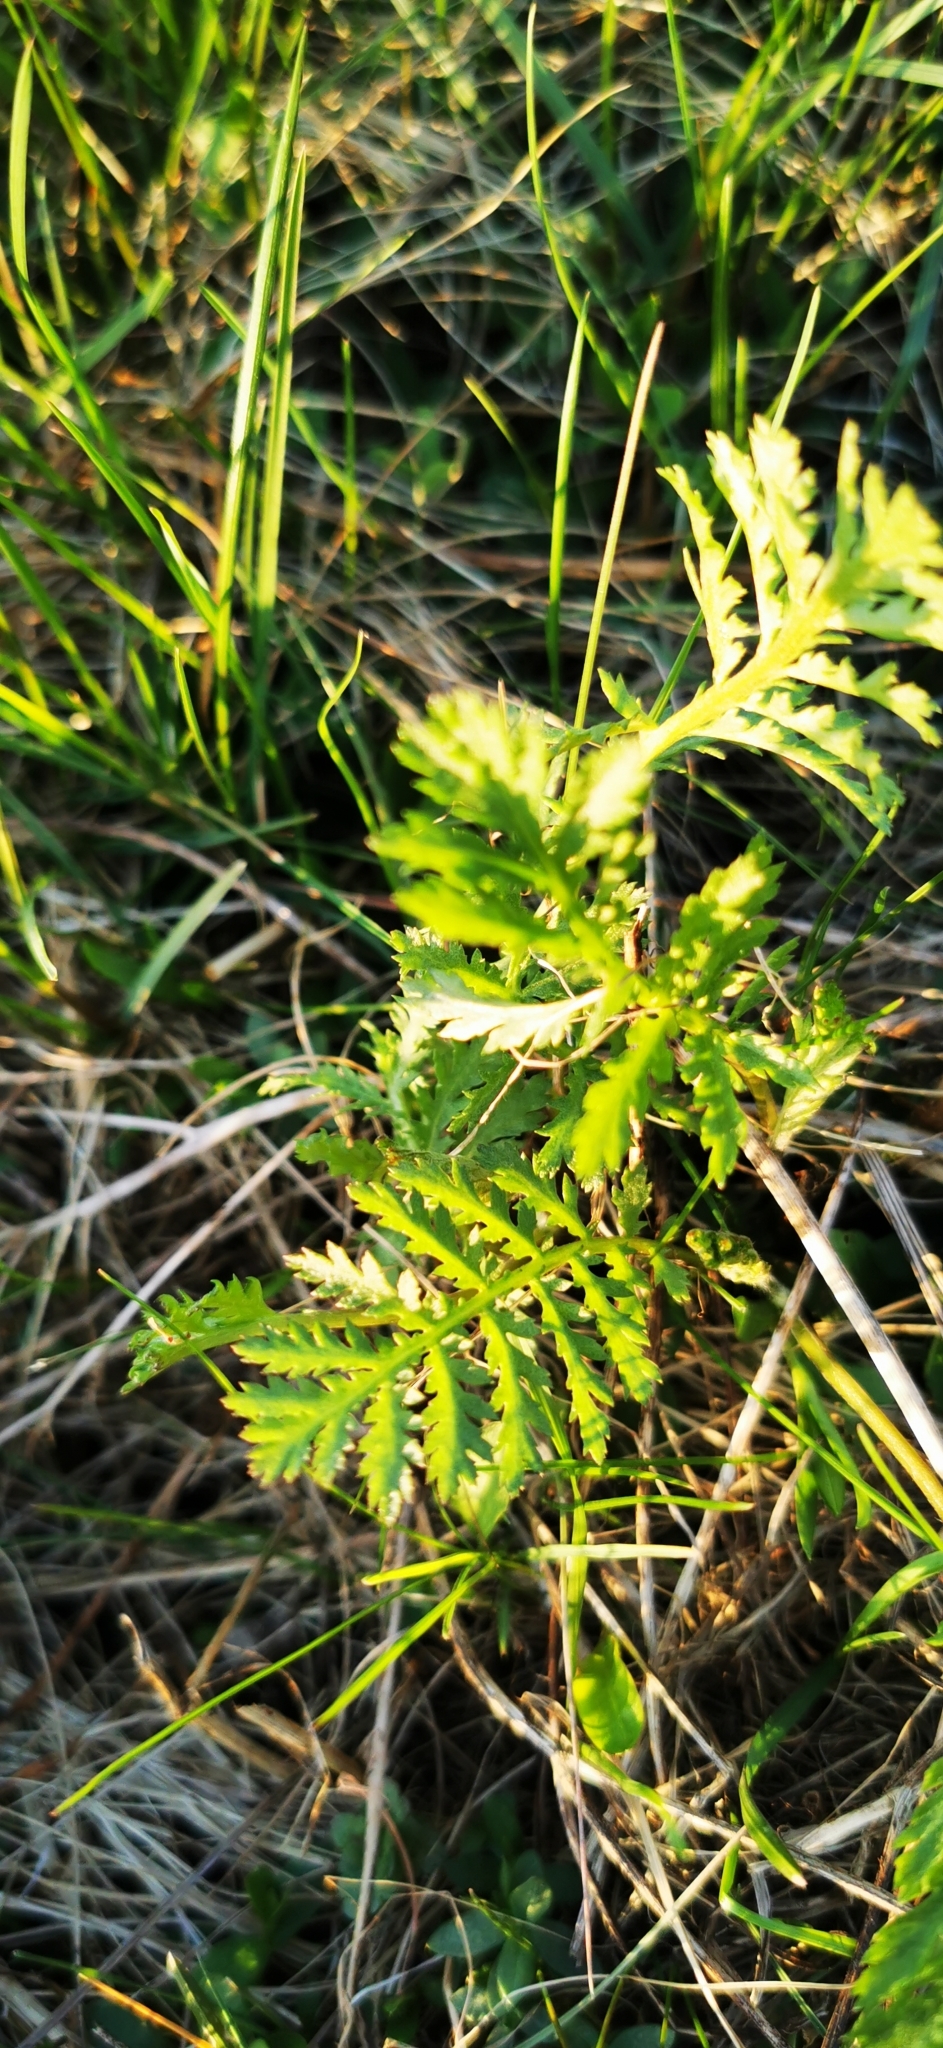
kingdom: Plantae
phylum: Tracheophyta
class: Magnoliopsida
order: Asterales
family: Asteraceae
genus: Achillea
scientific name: Achillea millefolium
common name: Yarrow
